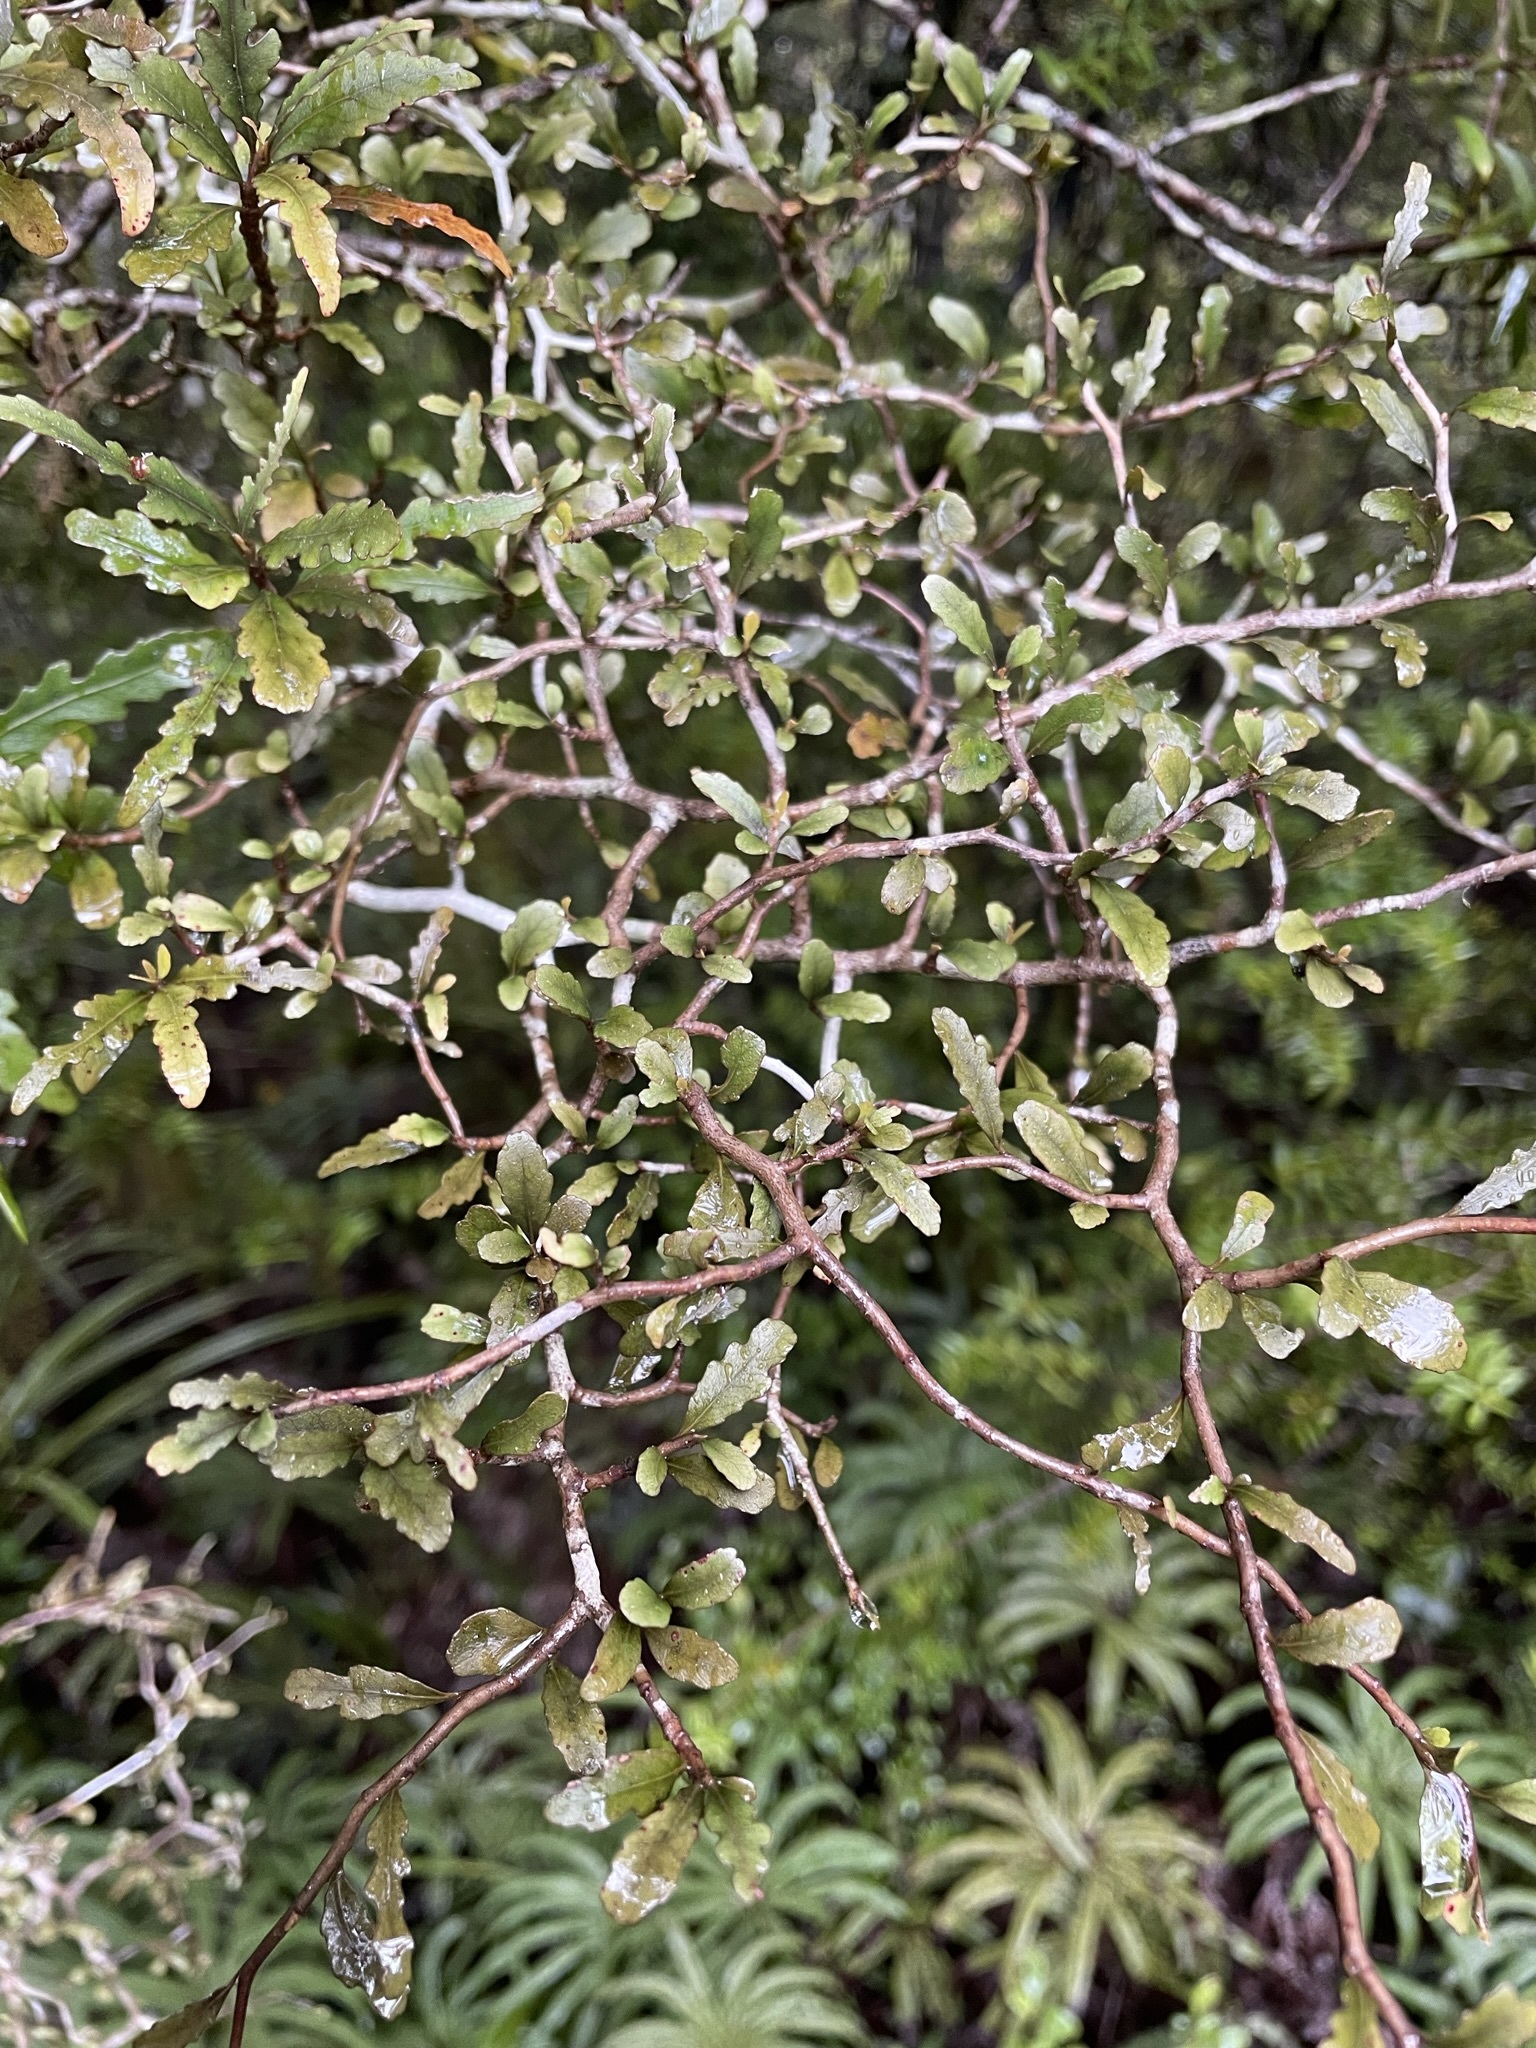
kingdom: Plantae
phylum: Tracheophyta
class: Magnoliopsida
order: Oxalidales
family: Elaeocarpaceae
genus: Elaeocarpus
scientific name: Elaeocarpus hookerianus
